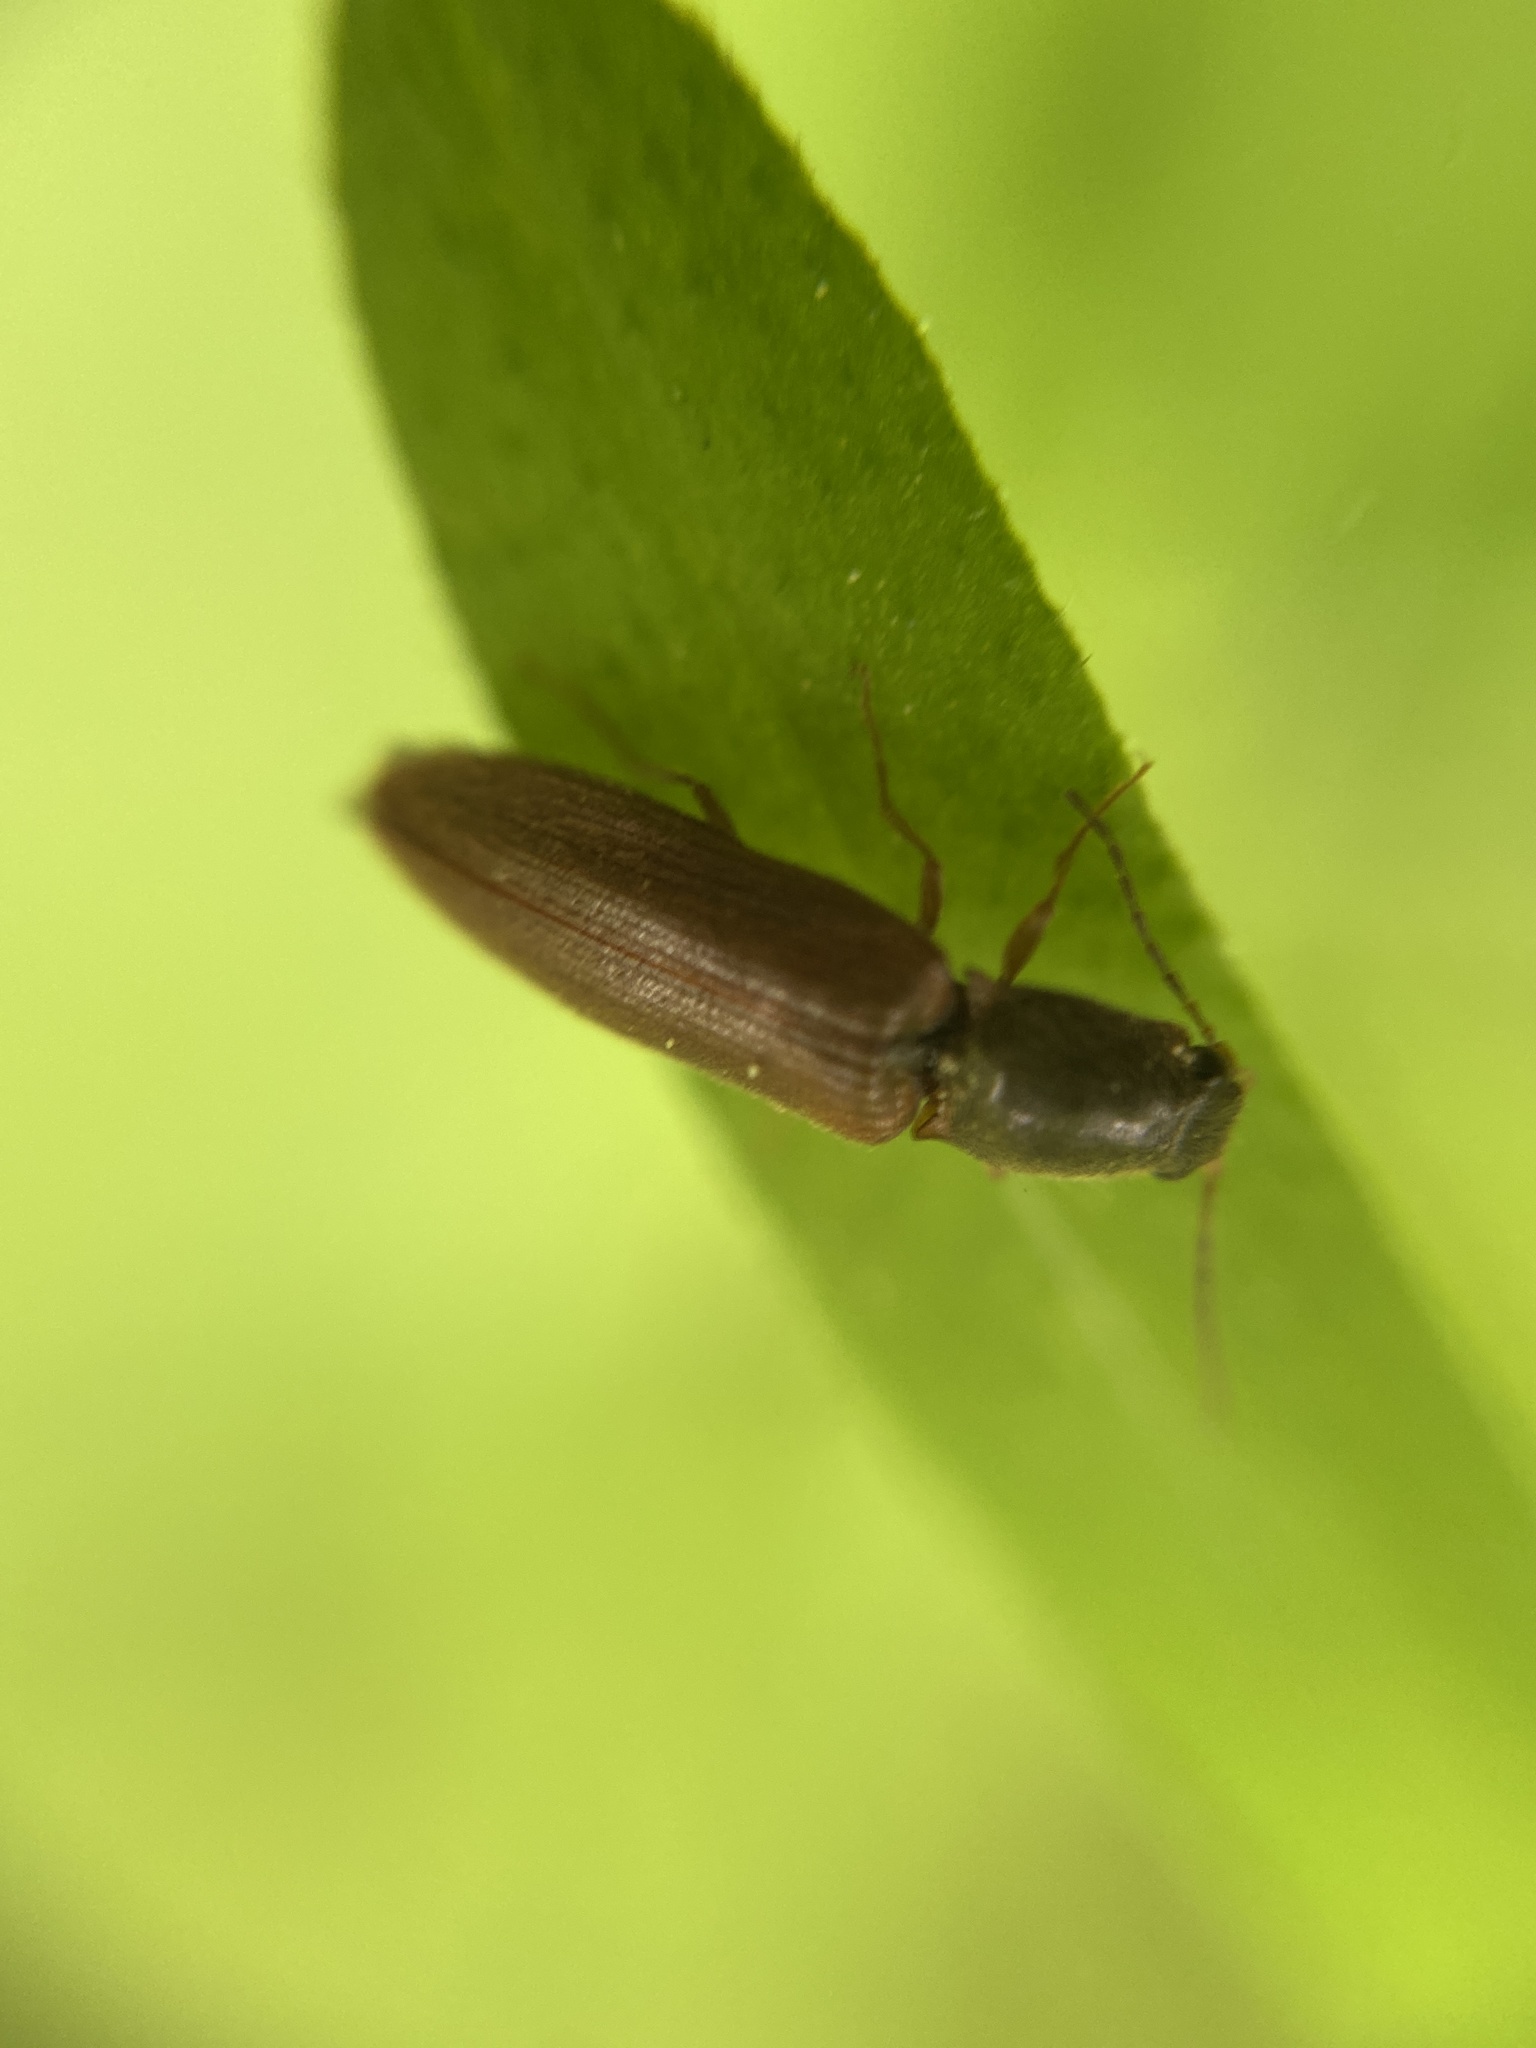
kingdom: Animalia
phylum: Arthropoda
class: Insecta
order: Coleoptera
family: Elateridae
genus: Athous
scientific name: Athous subfuscus
